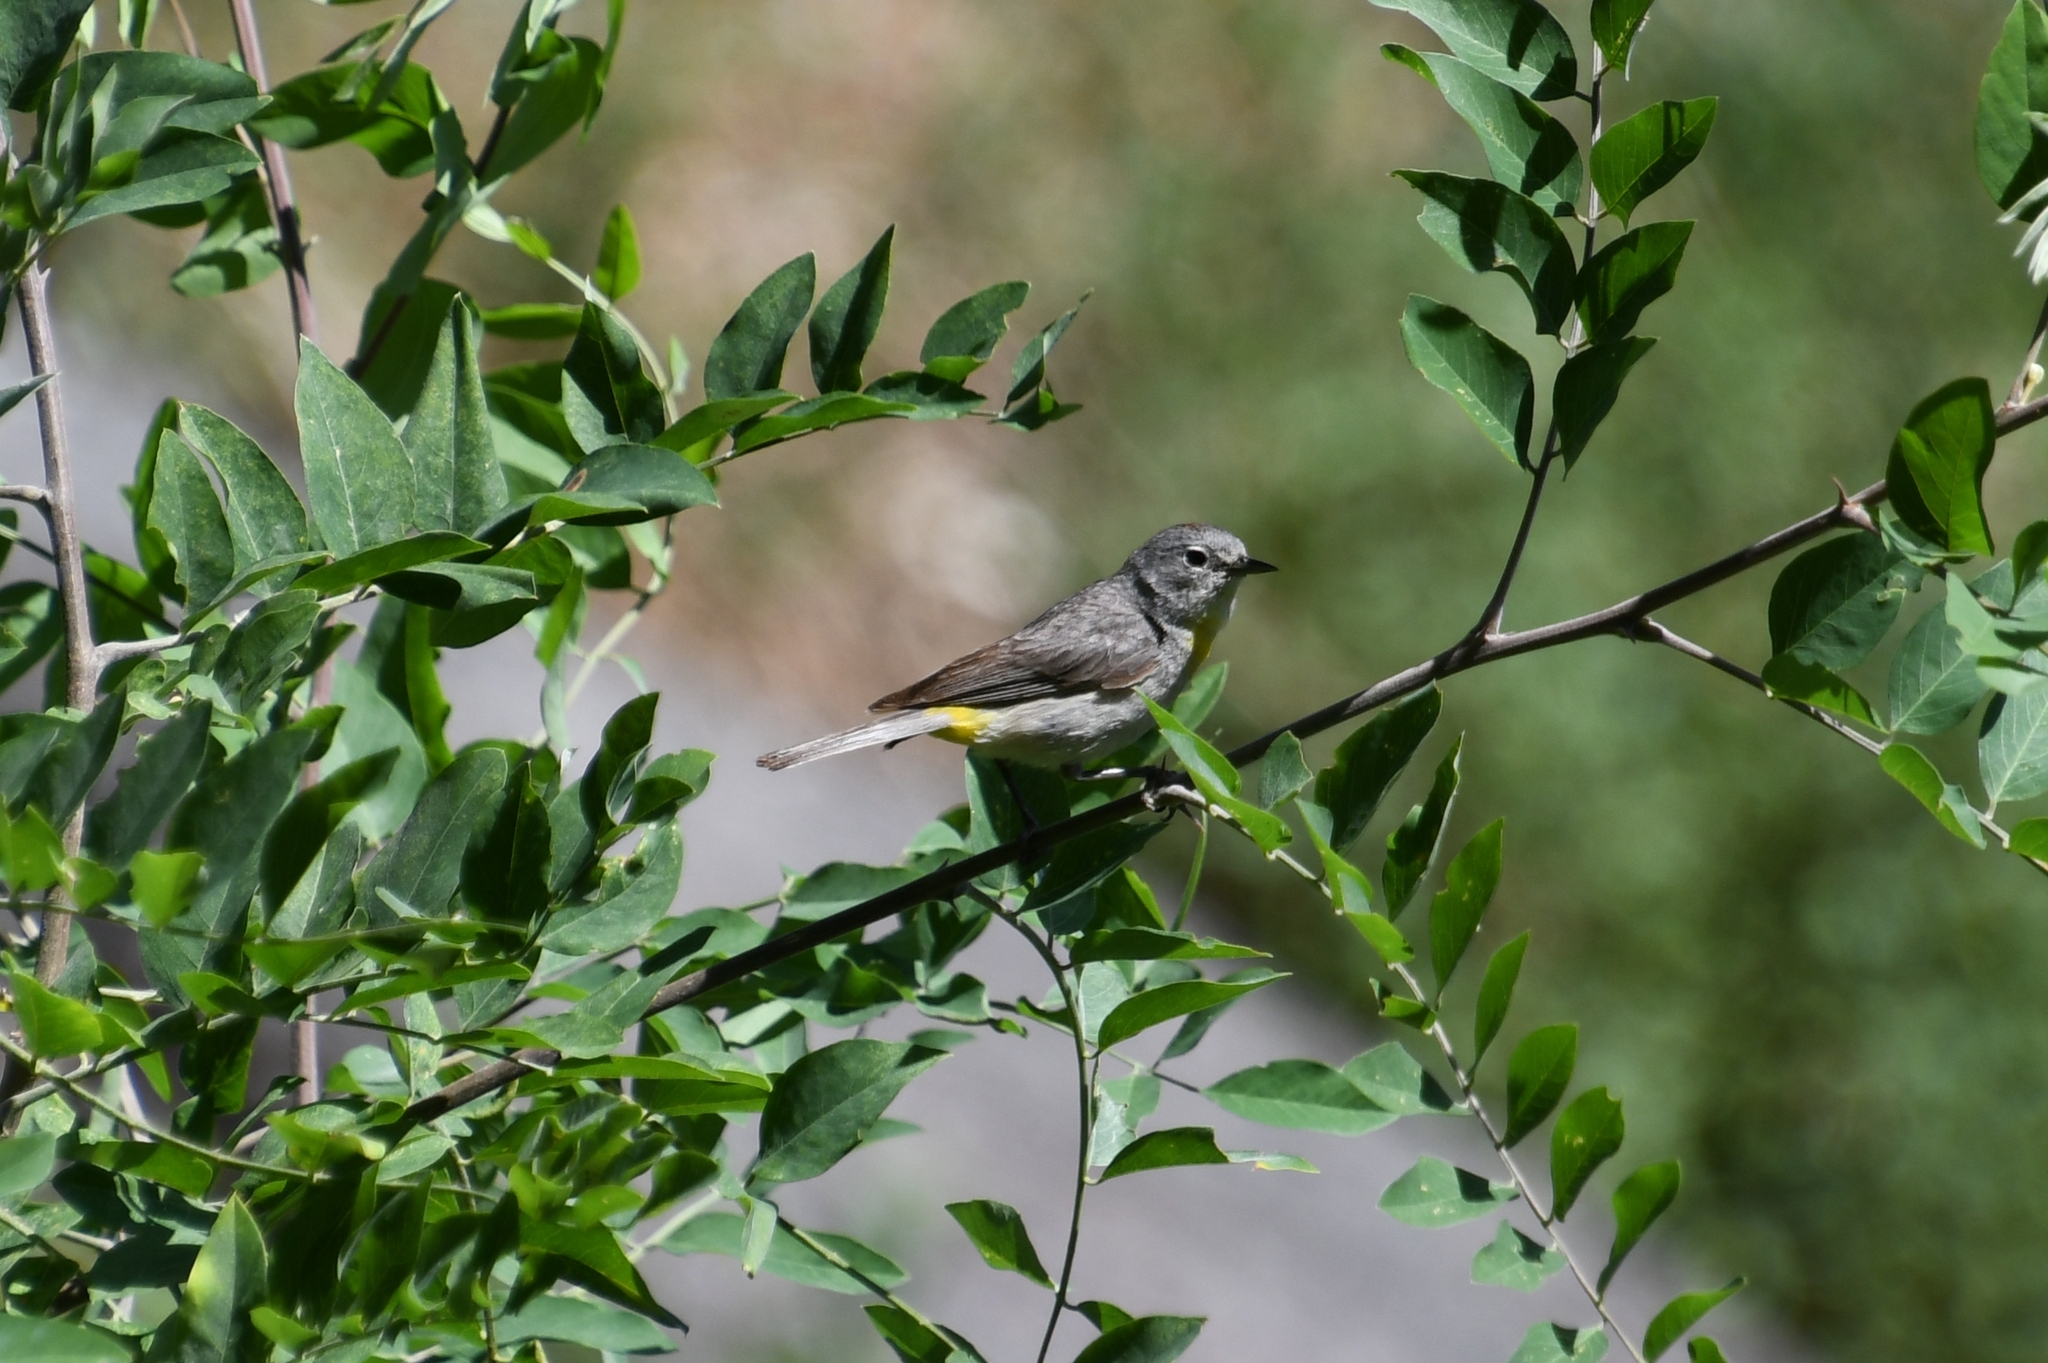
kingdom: Animalia
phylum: Chordata
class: Aves
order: Passeriformes
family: Parulidae
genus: Leiothlypis
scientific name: Leiothlypis virginiae
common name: Virginia's warbler
